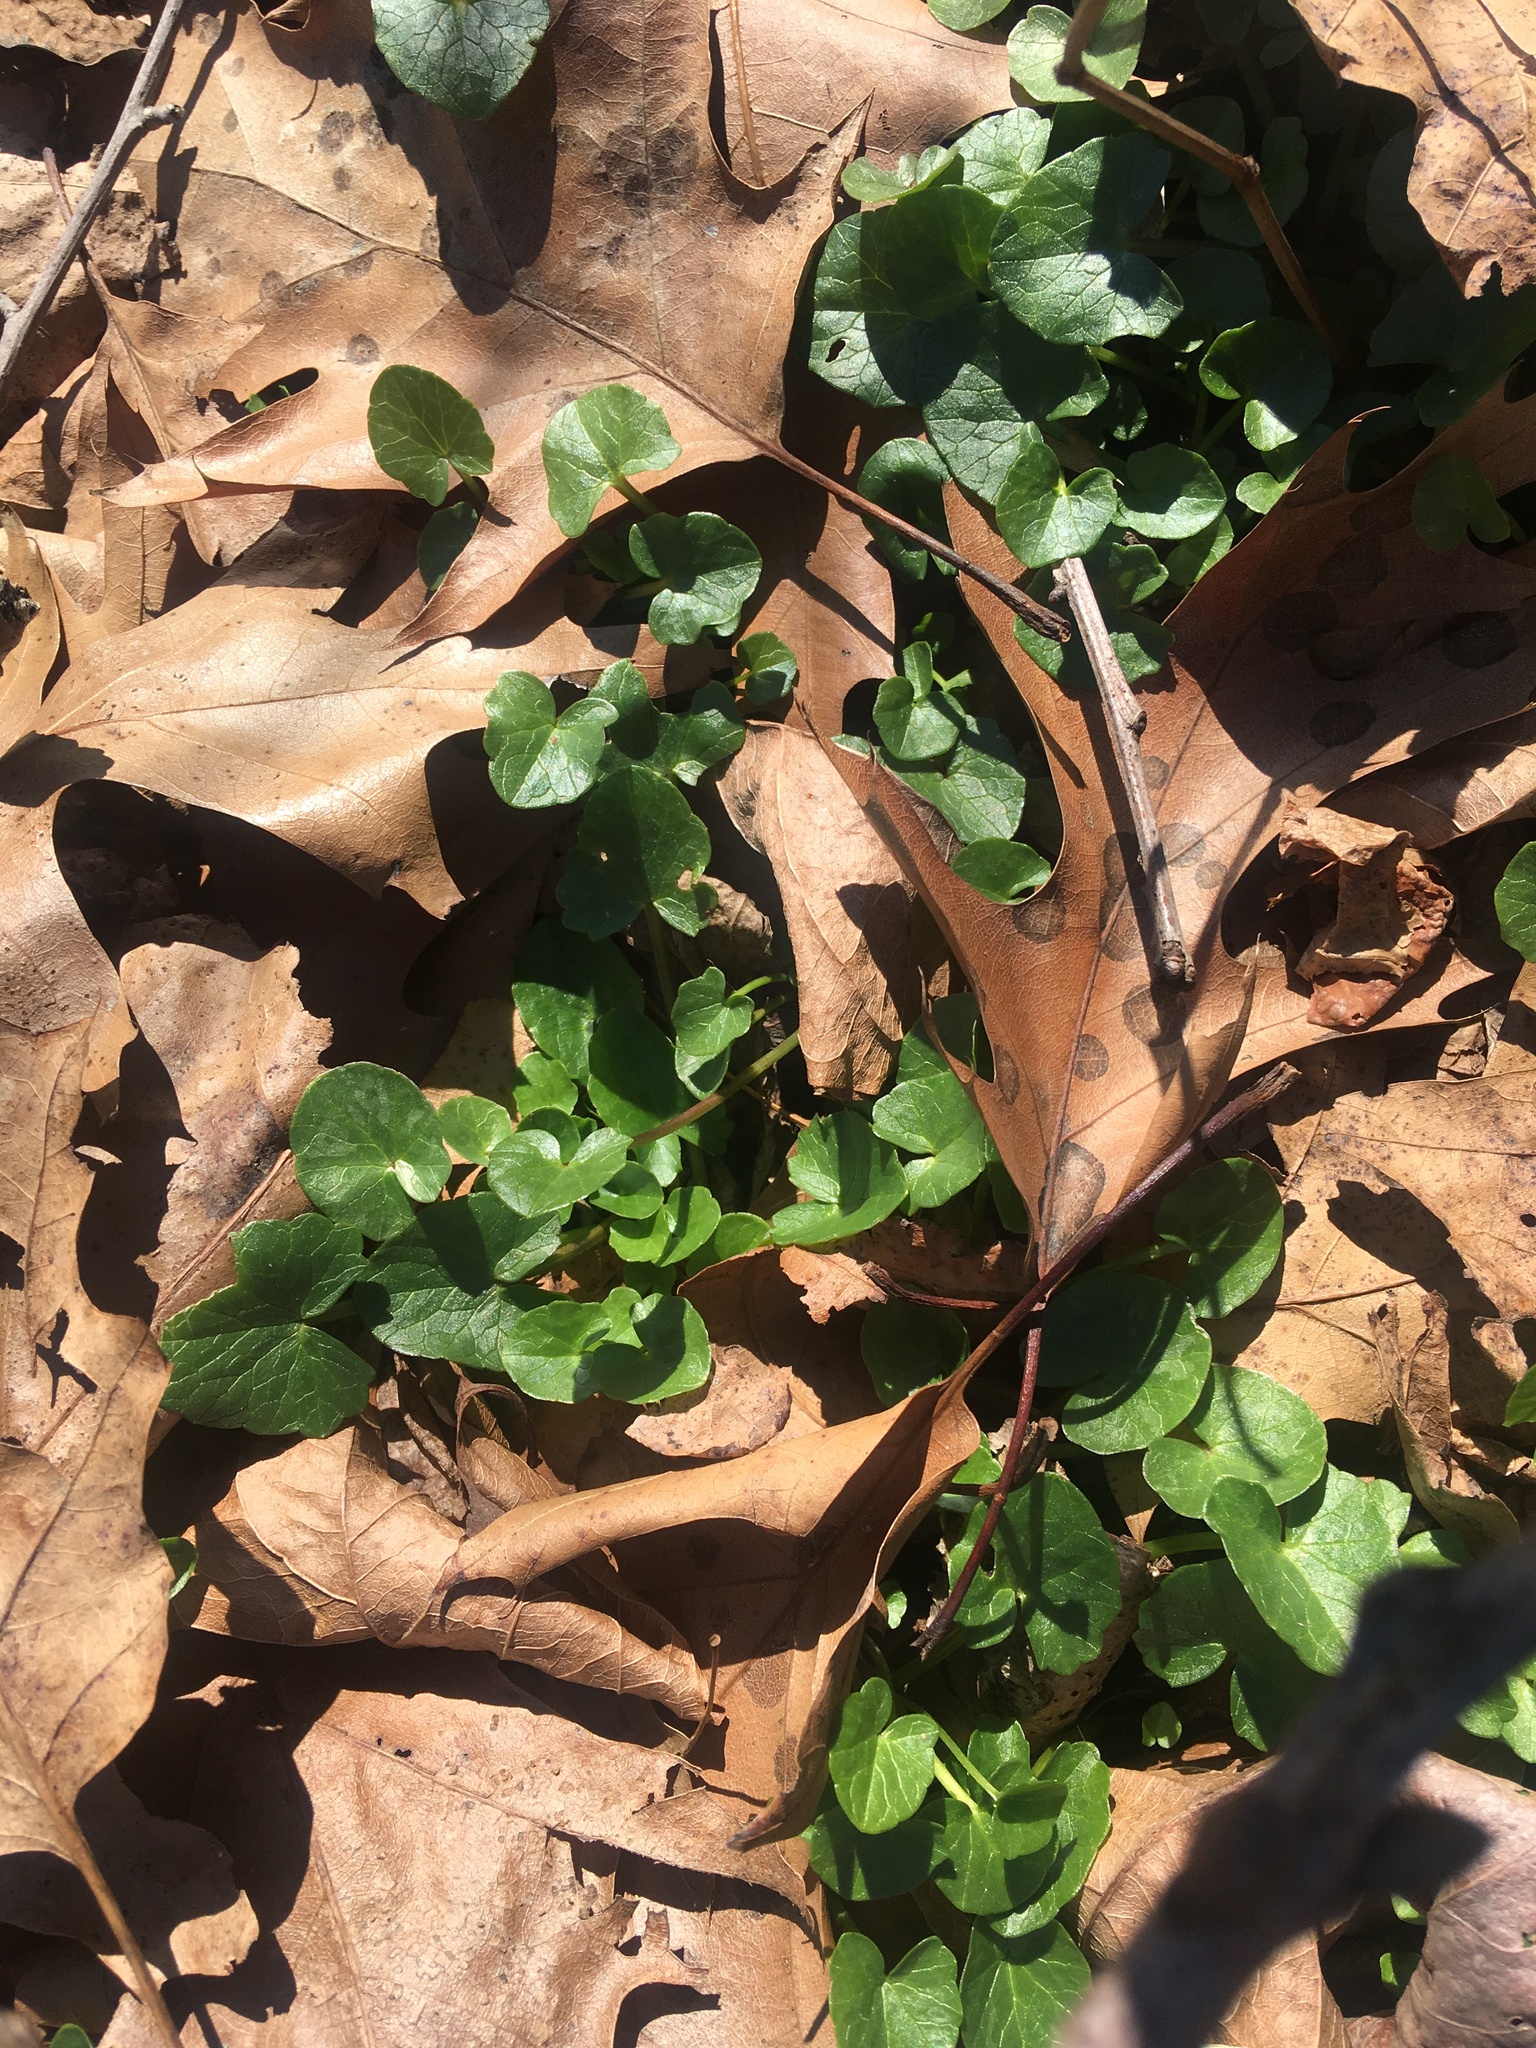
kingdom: Plantae
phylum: Tracheophyta
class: Magnoliopsida
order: Ranunculales
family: Ranunculaceae
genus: Ficaria
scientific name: Ficaria verna
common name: Lesser celandine
